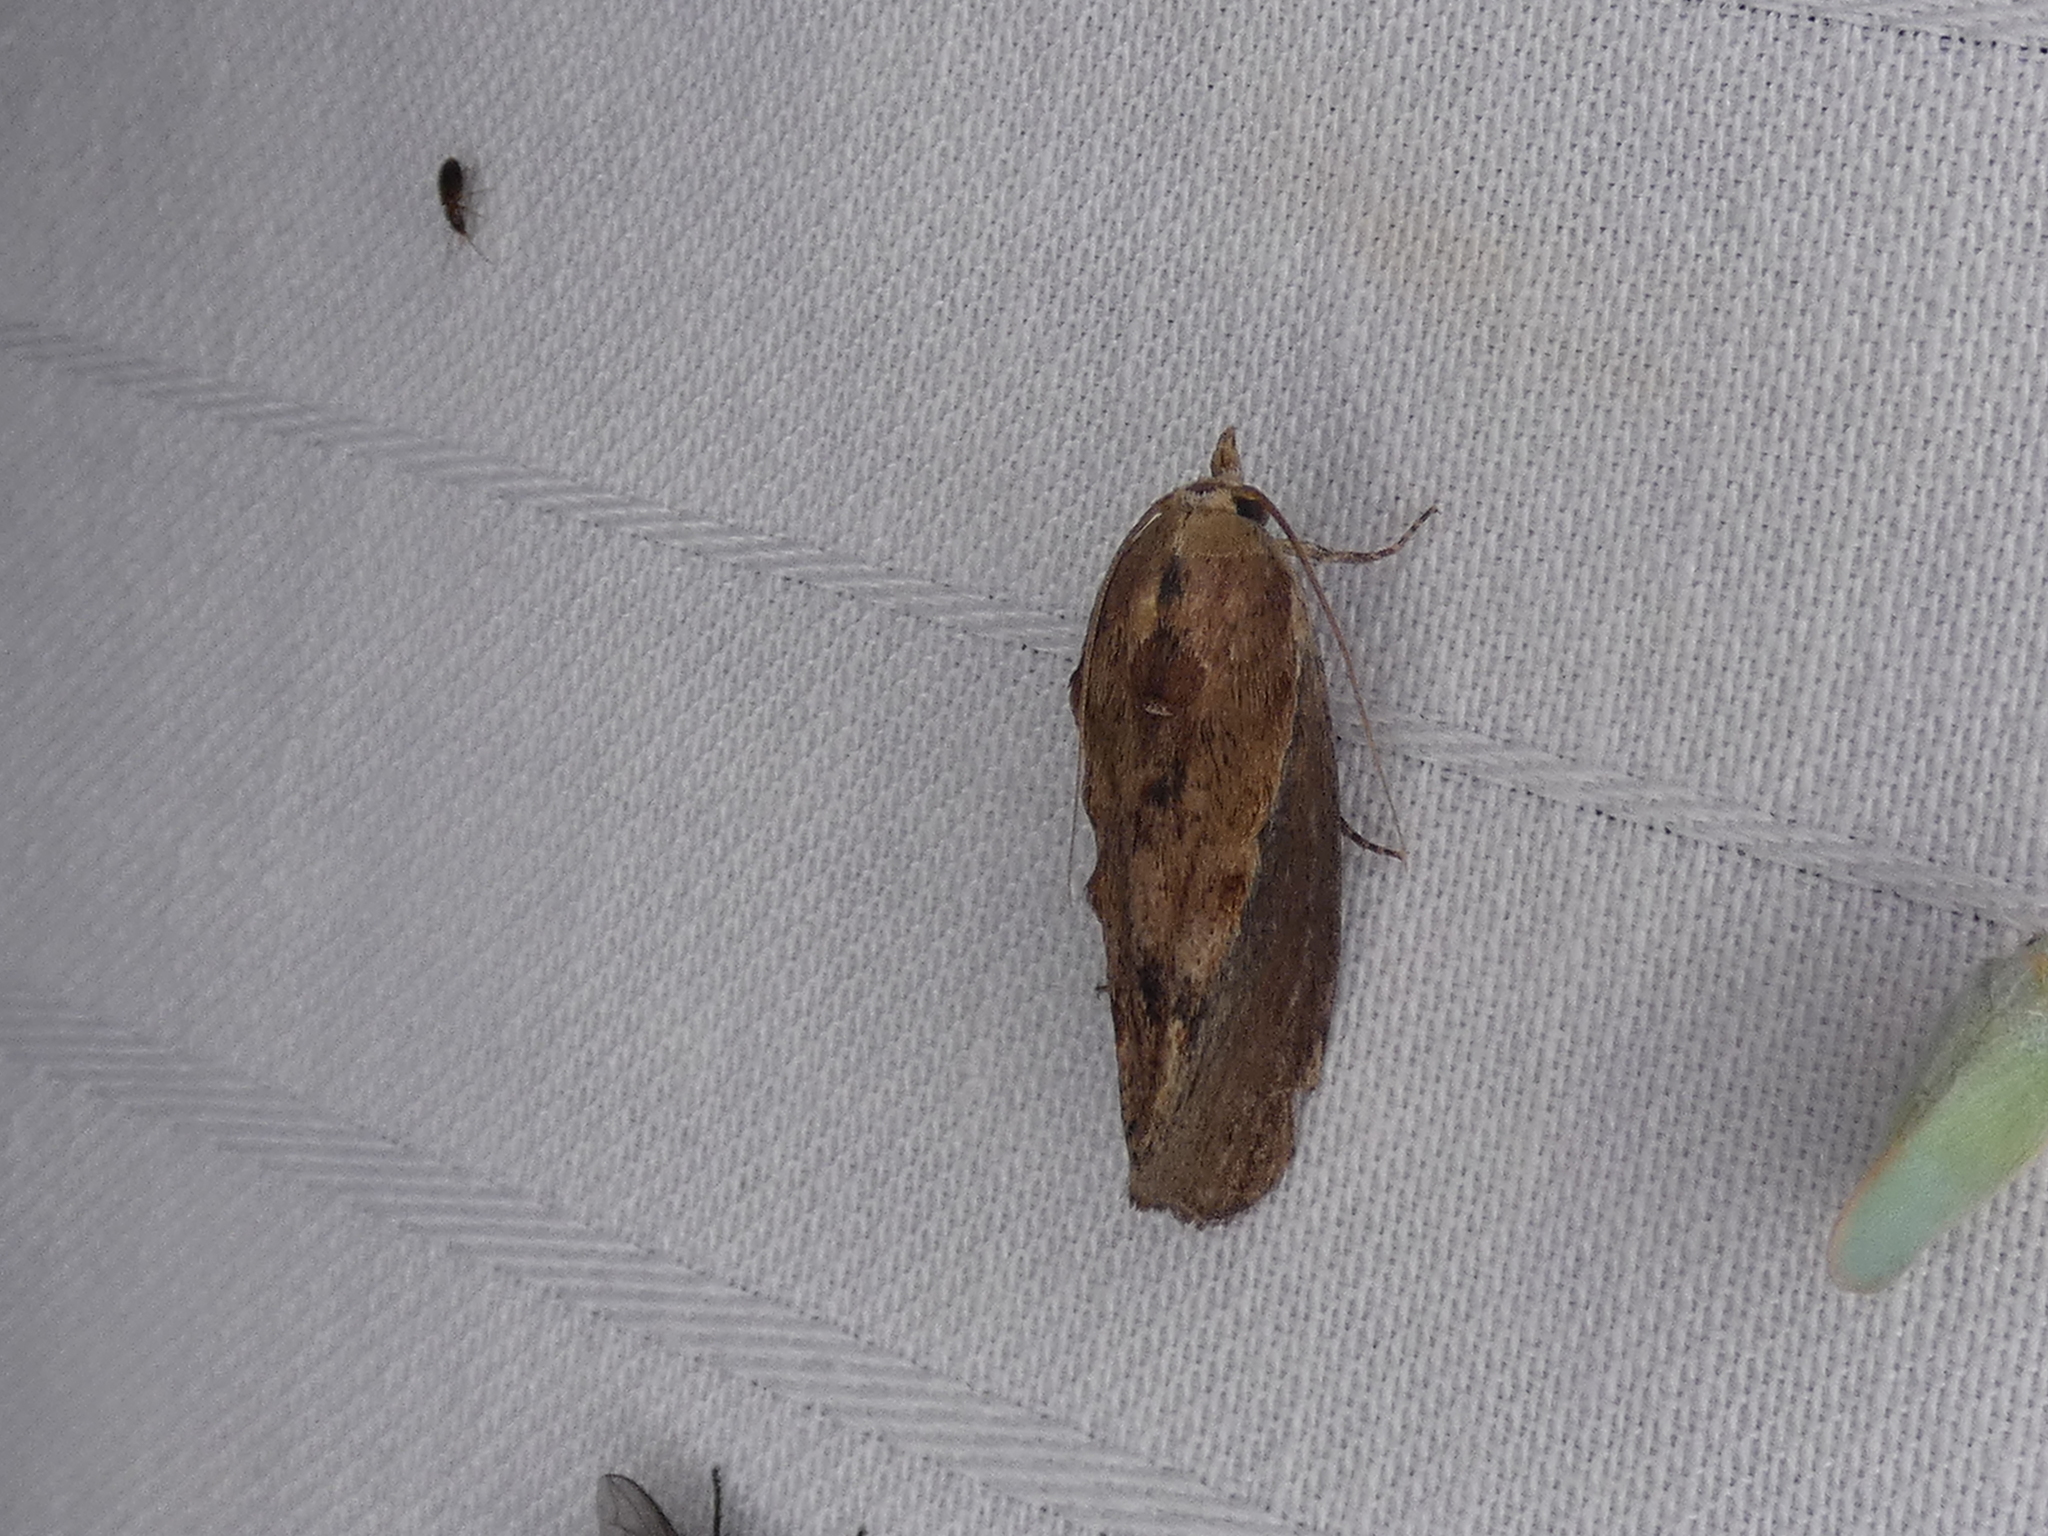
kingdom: Animalia
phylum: Arthropoda
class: Insecta
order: Lepidoptera
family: Pyralidae
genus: Galleria
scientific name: Galleria mellonella
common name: Greater wax moth
